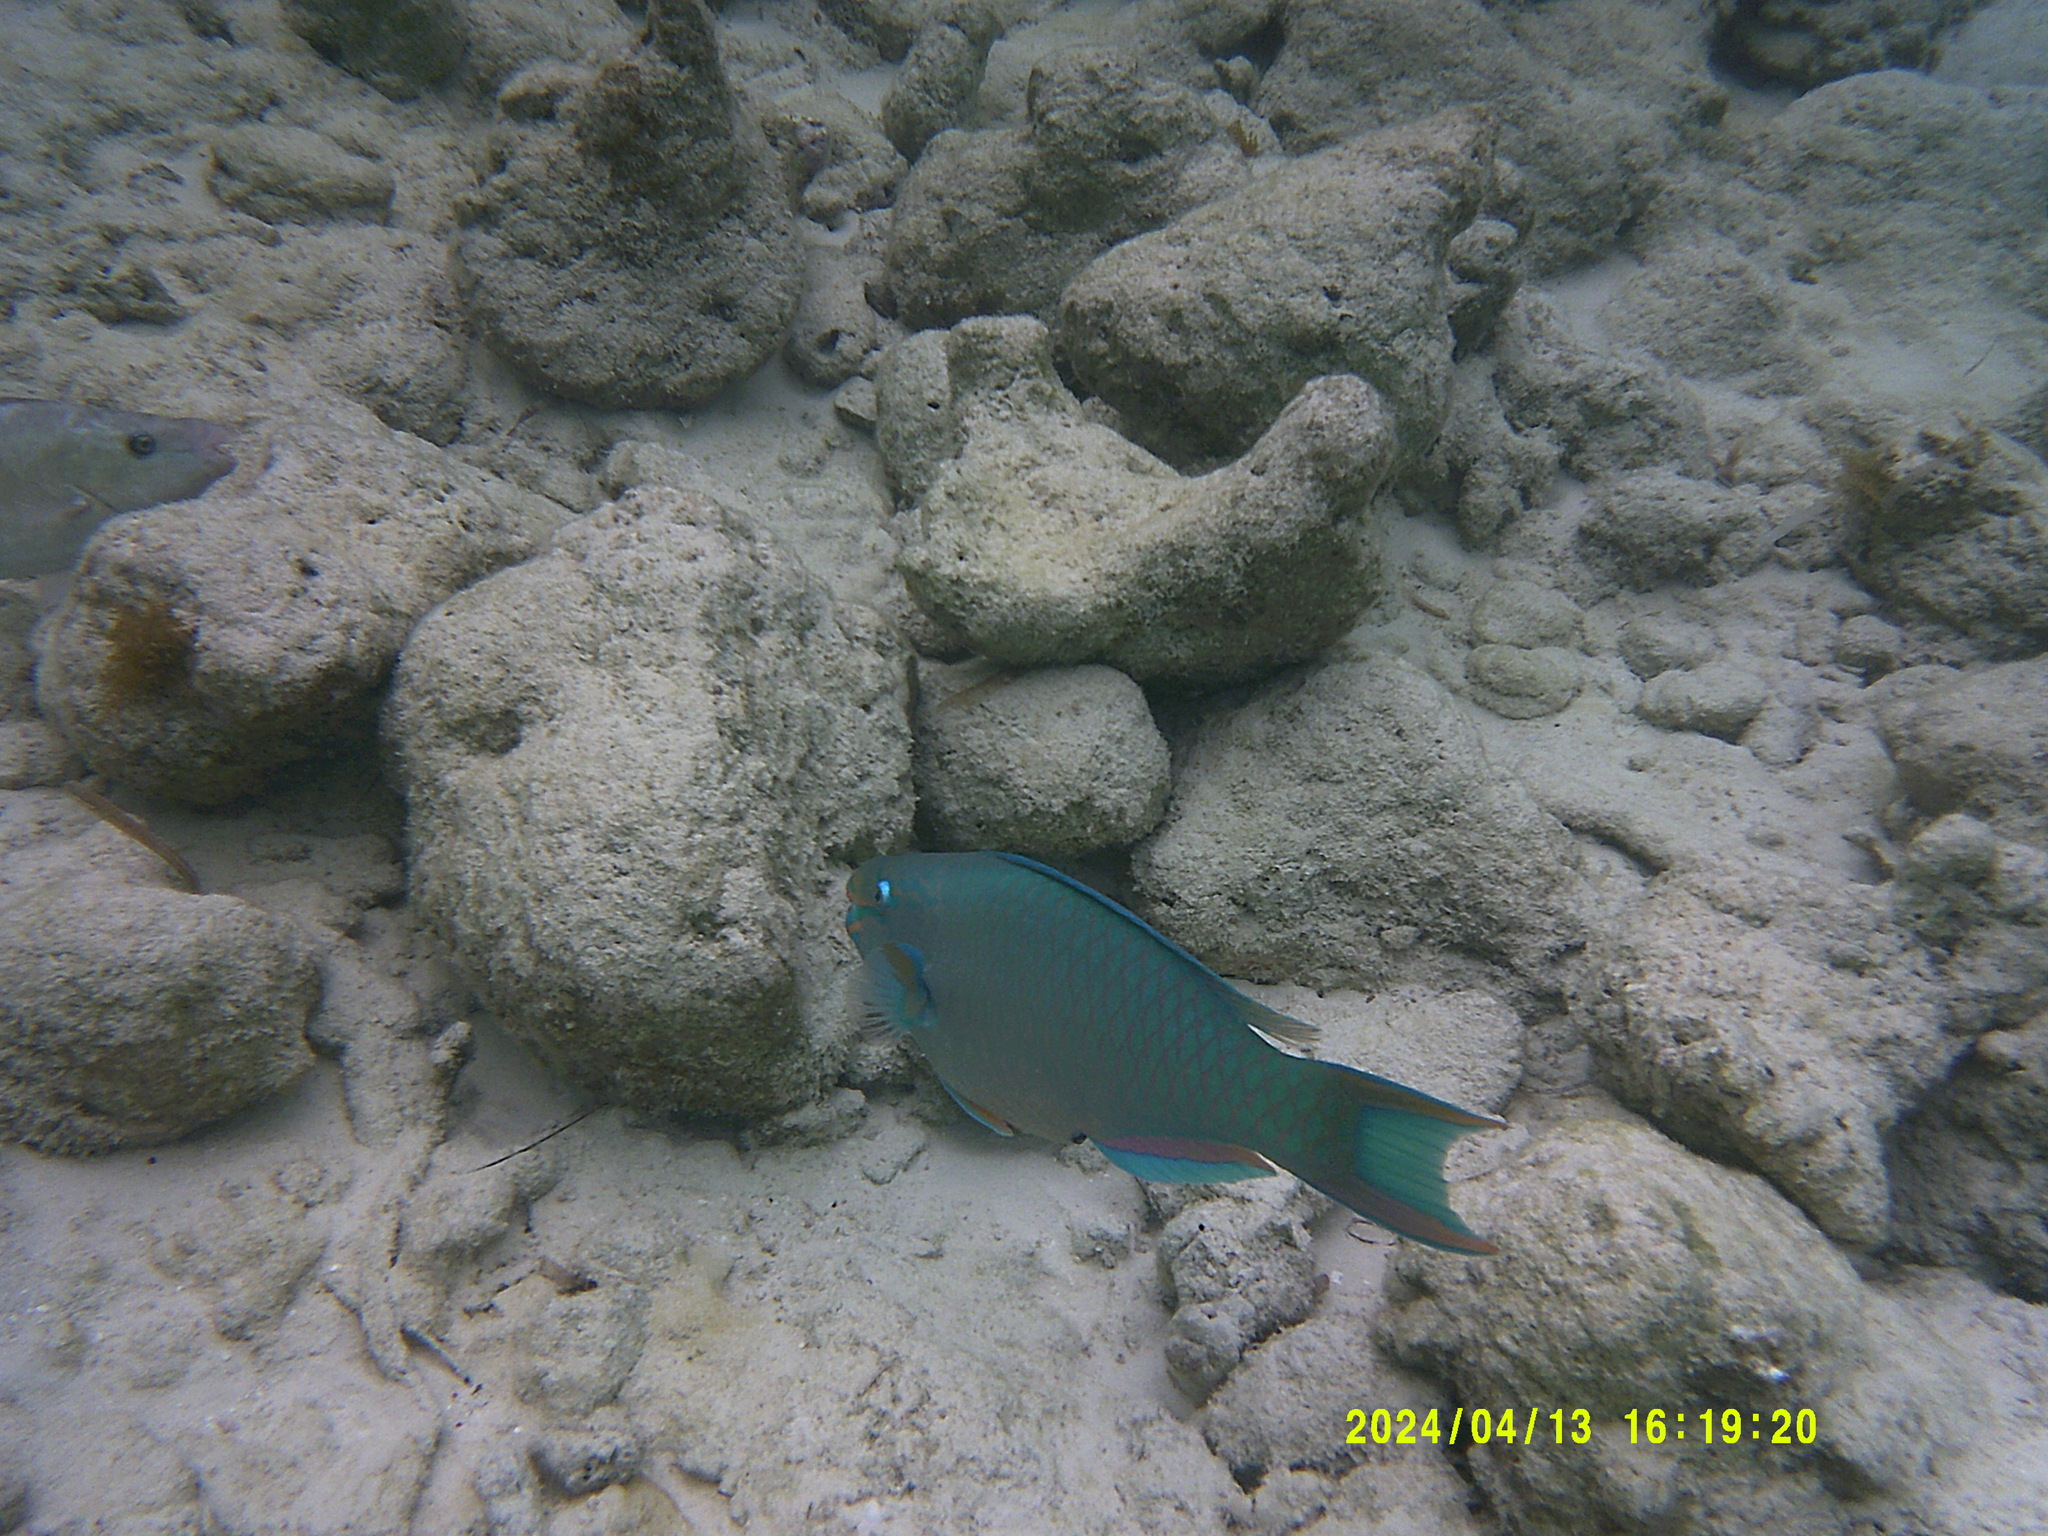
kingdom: Animalia
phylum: Chordata
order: Perciformes
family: Scaridae
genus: Scarus
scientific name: Scarus vetula
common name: Queen parrotfish
